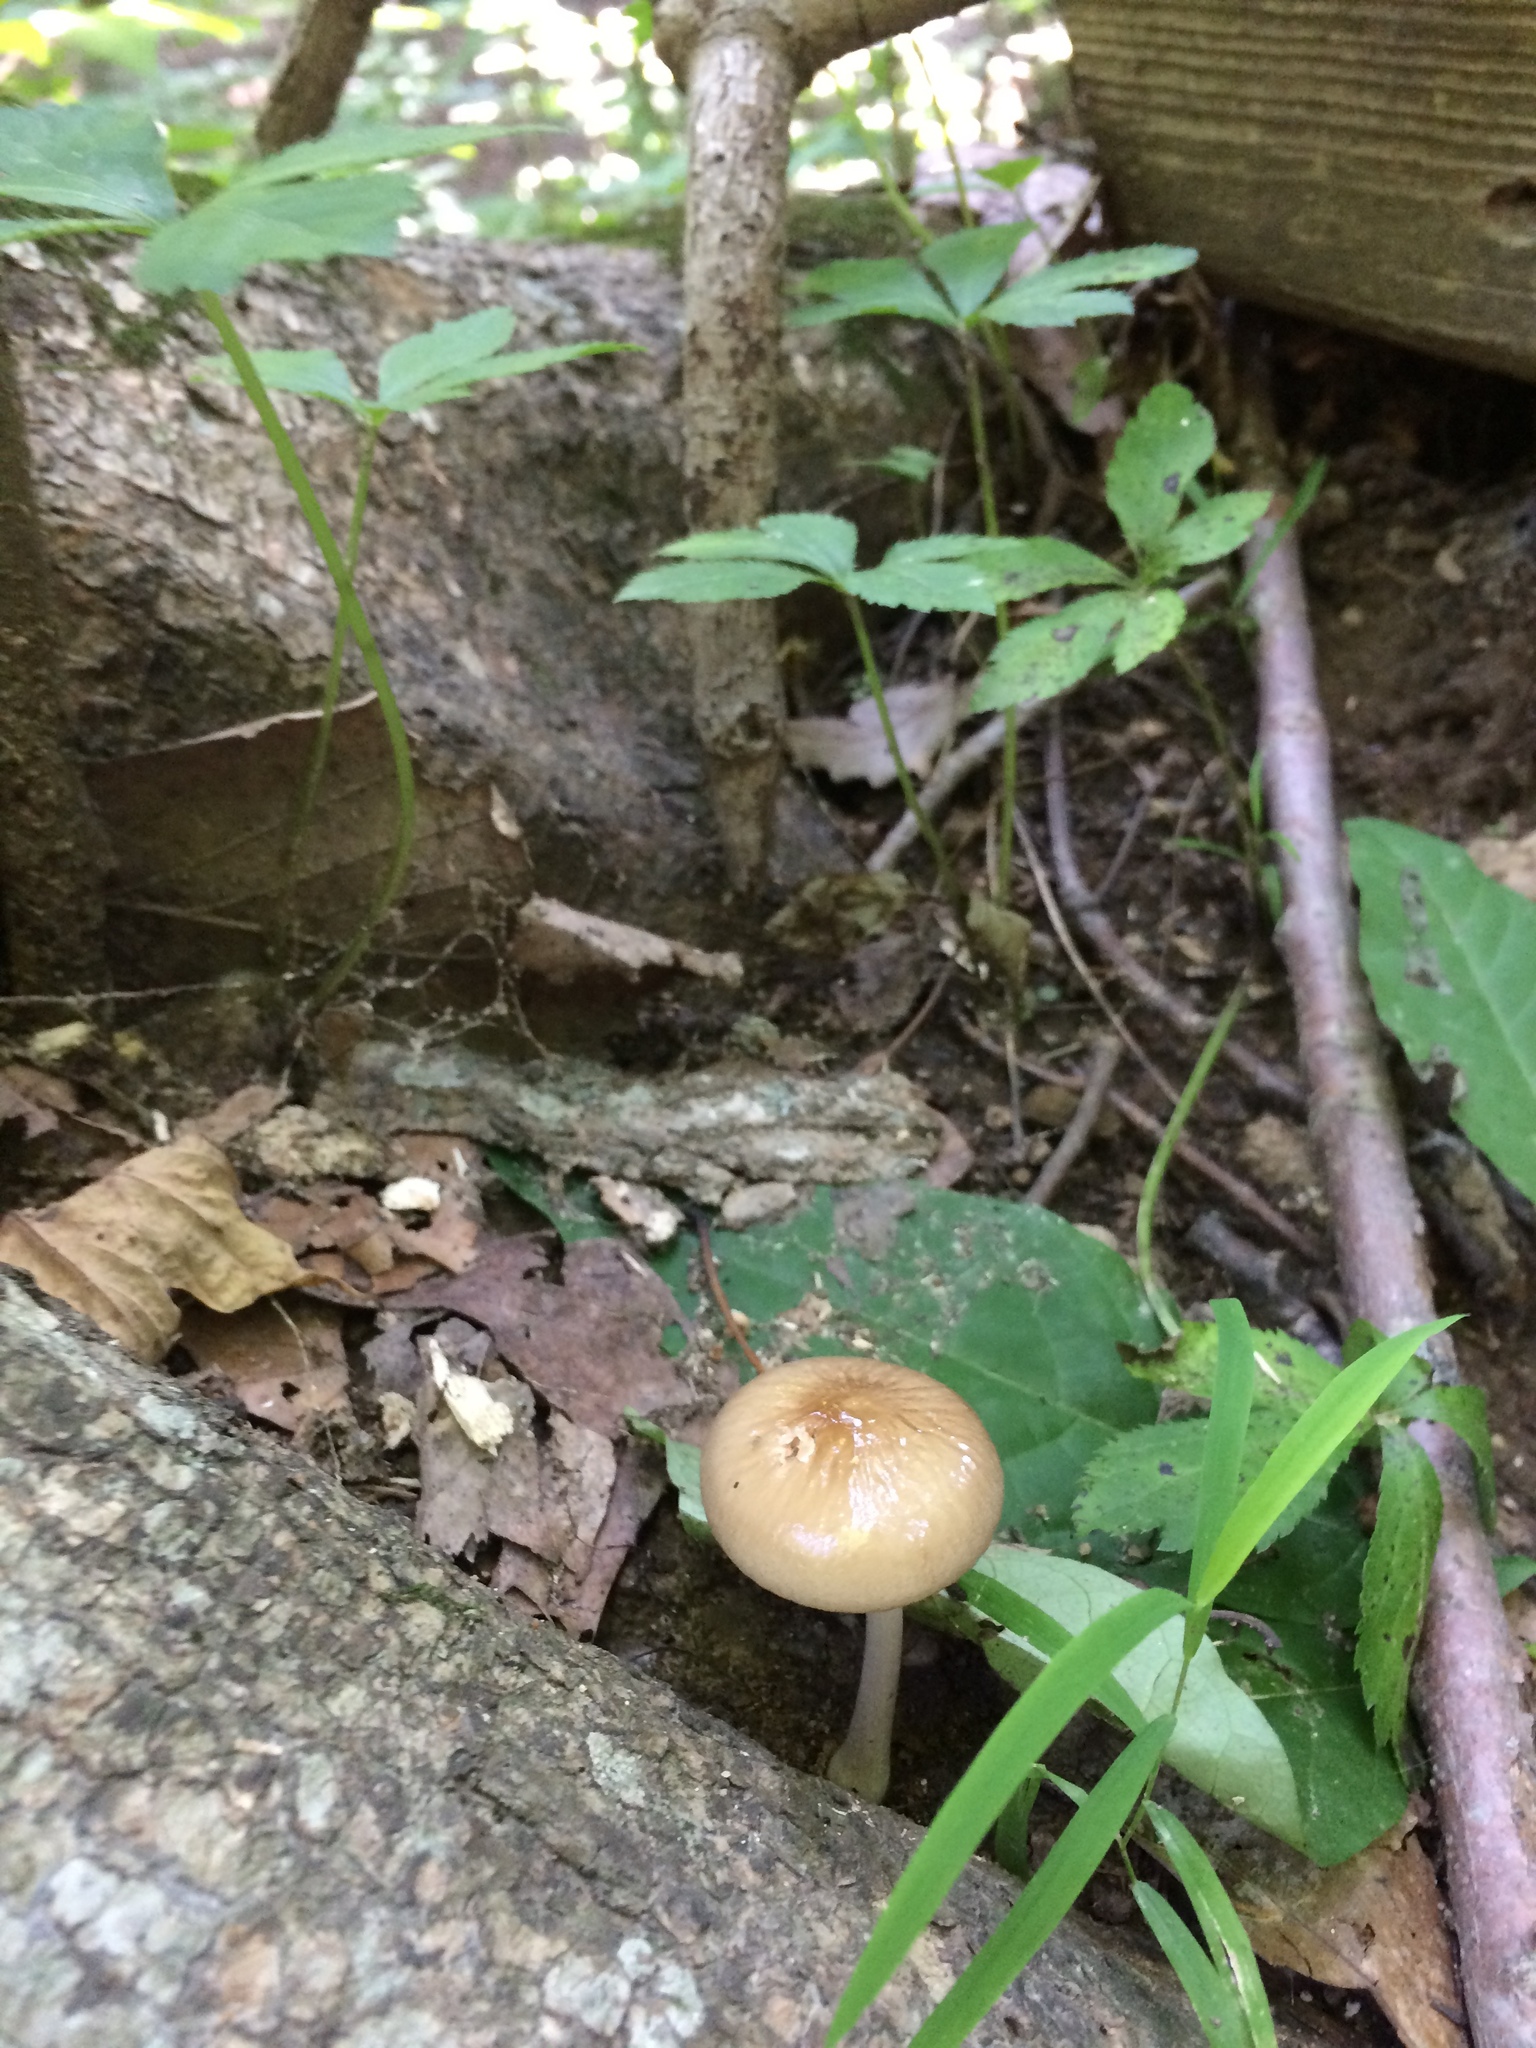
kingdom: Fungi
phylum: Basidiomycota
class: Agaricomycetes
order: Agaricales
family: Physalacriaceae
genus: Hymenopellis
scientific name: Hymenopellis furfuracea
